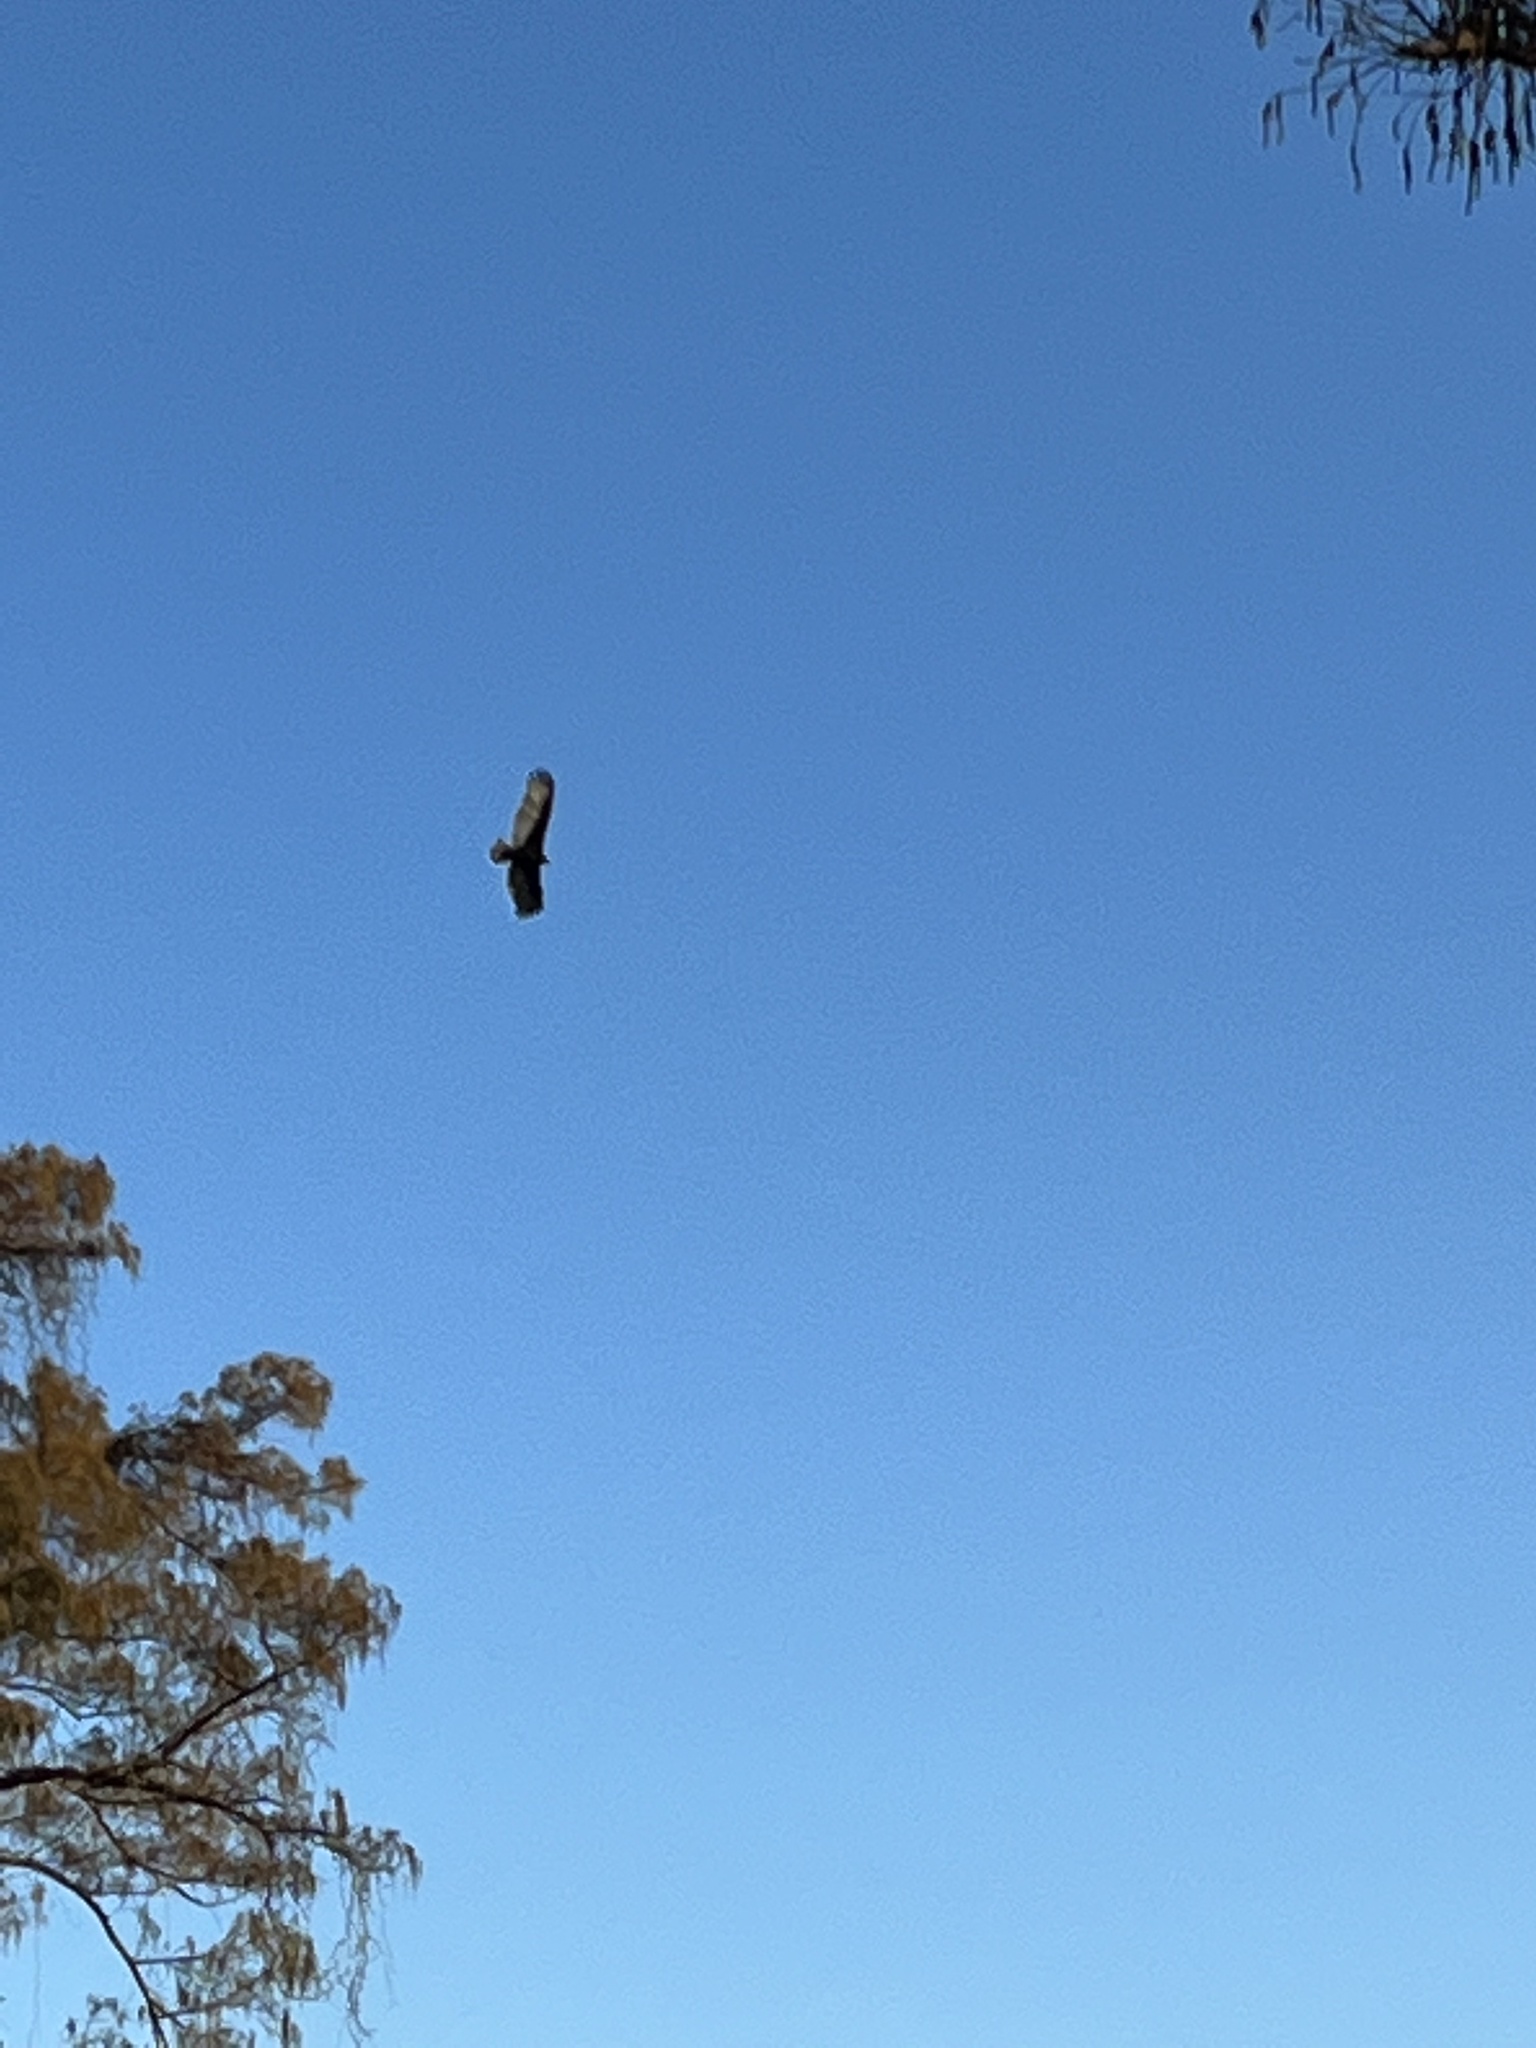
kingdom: Animalia
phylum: Chordata
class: Aves
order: Accipitriformes
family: Cathartidae
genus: Cathartes
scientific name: Cathartes aura
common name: Turkey vulture
